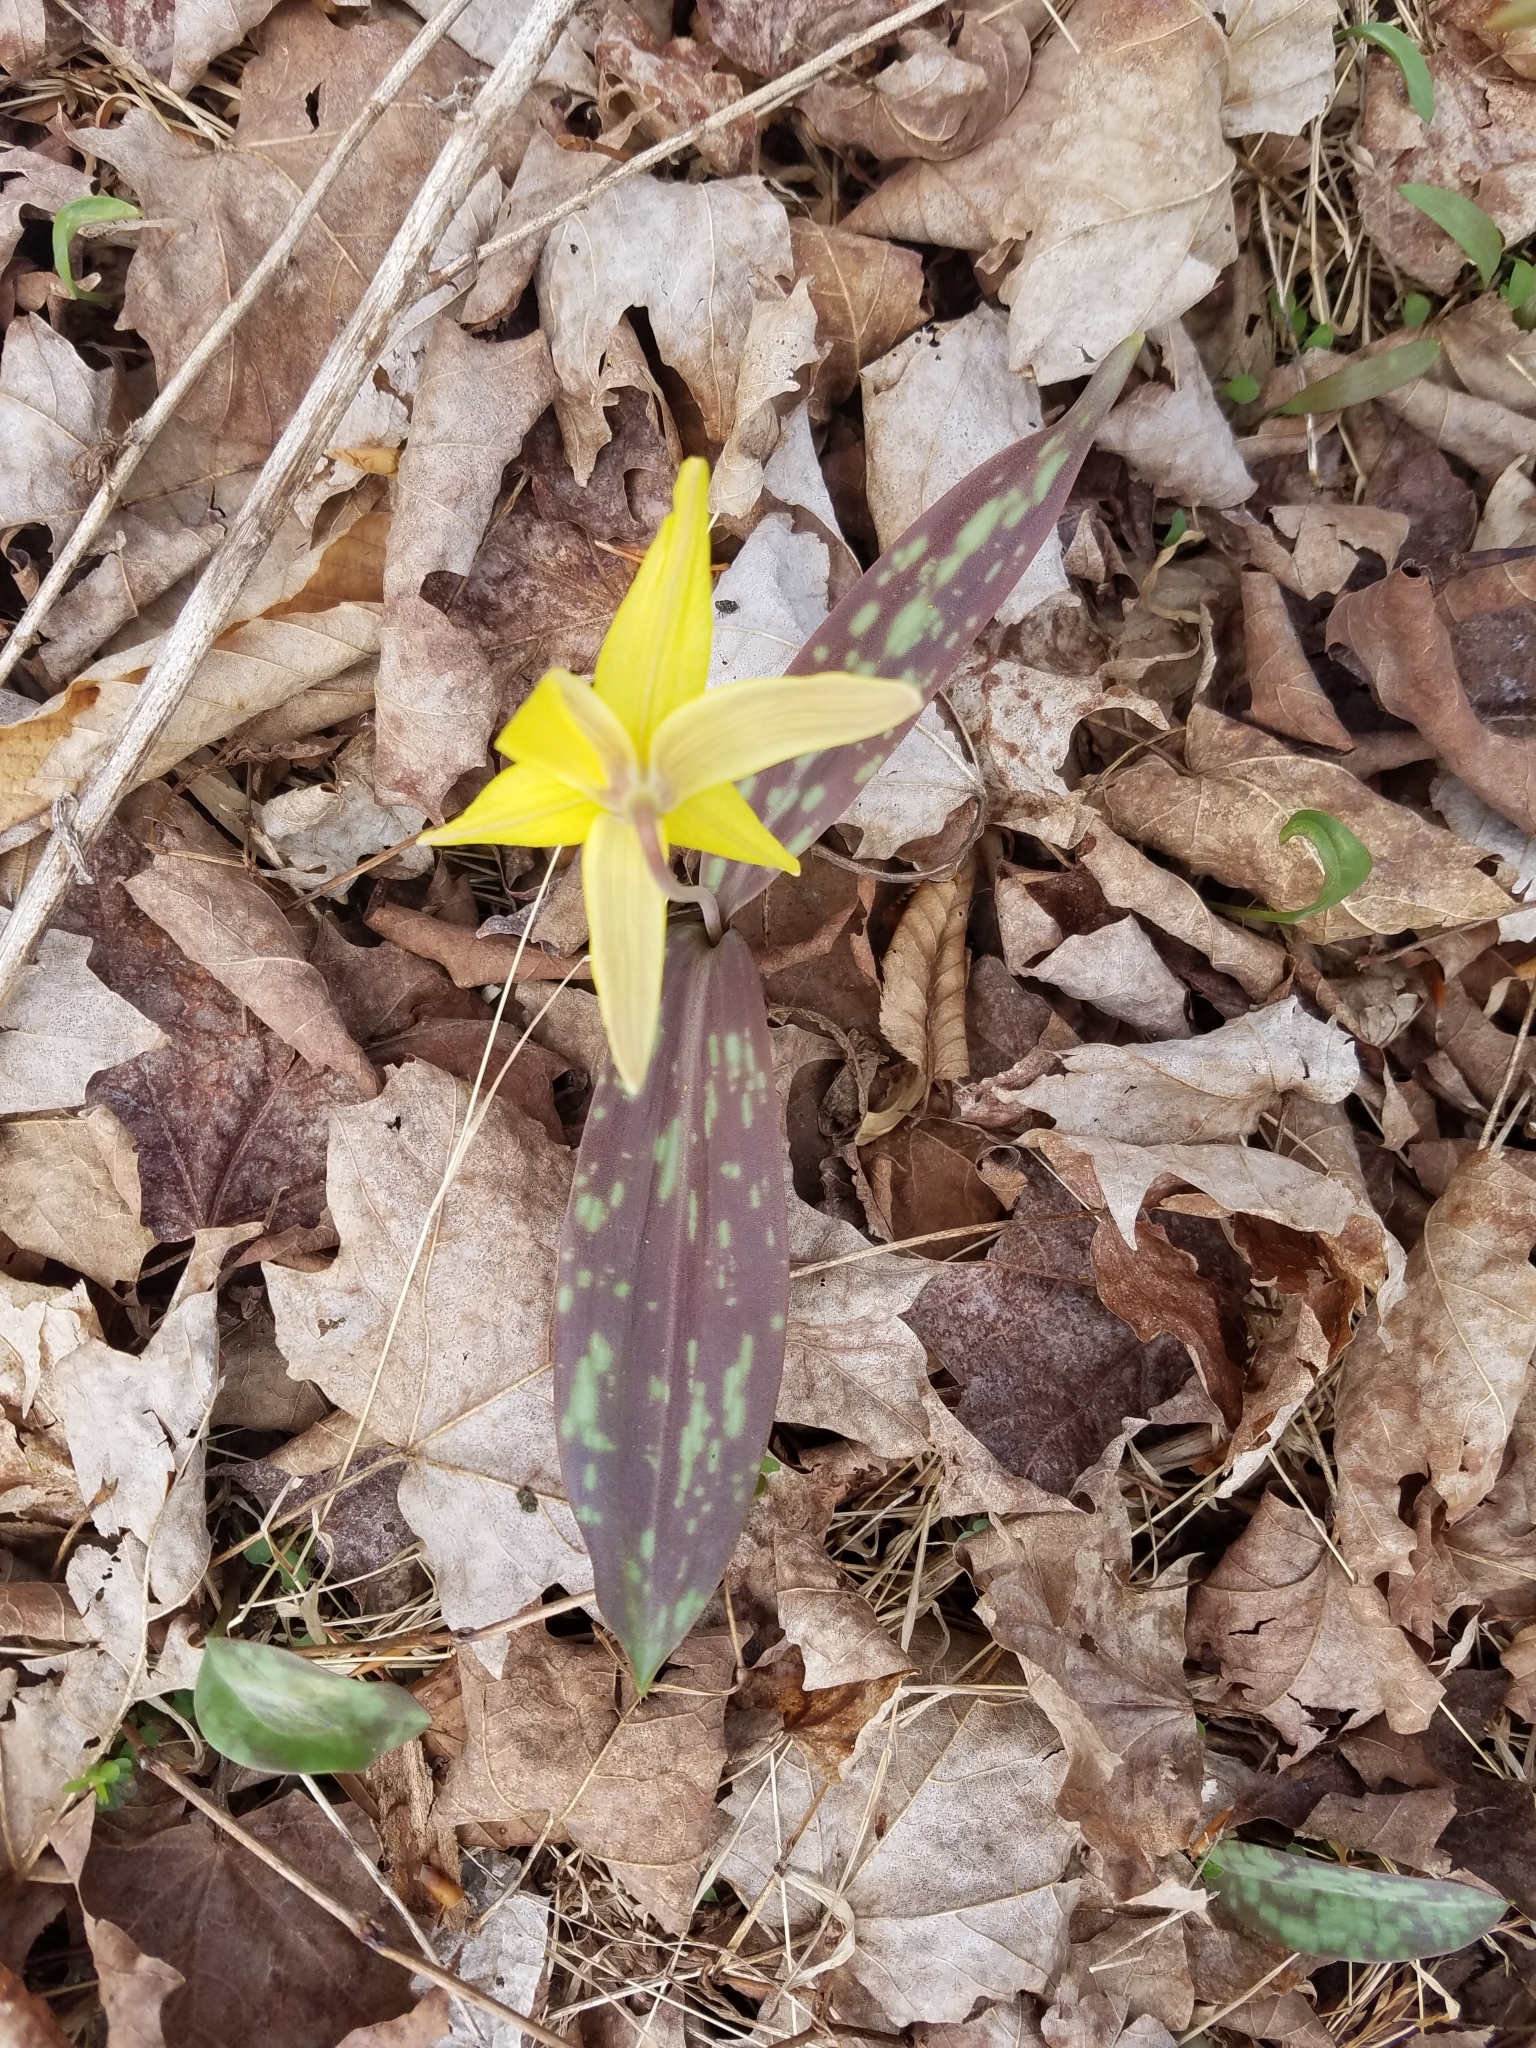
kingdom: Plantae
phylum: Tracheophyta
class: Liliopsida
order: Liliales
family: Liliaceae
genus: Erythronium
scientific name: Erythronium americanum
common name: Yellow adder's-tongue
